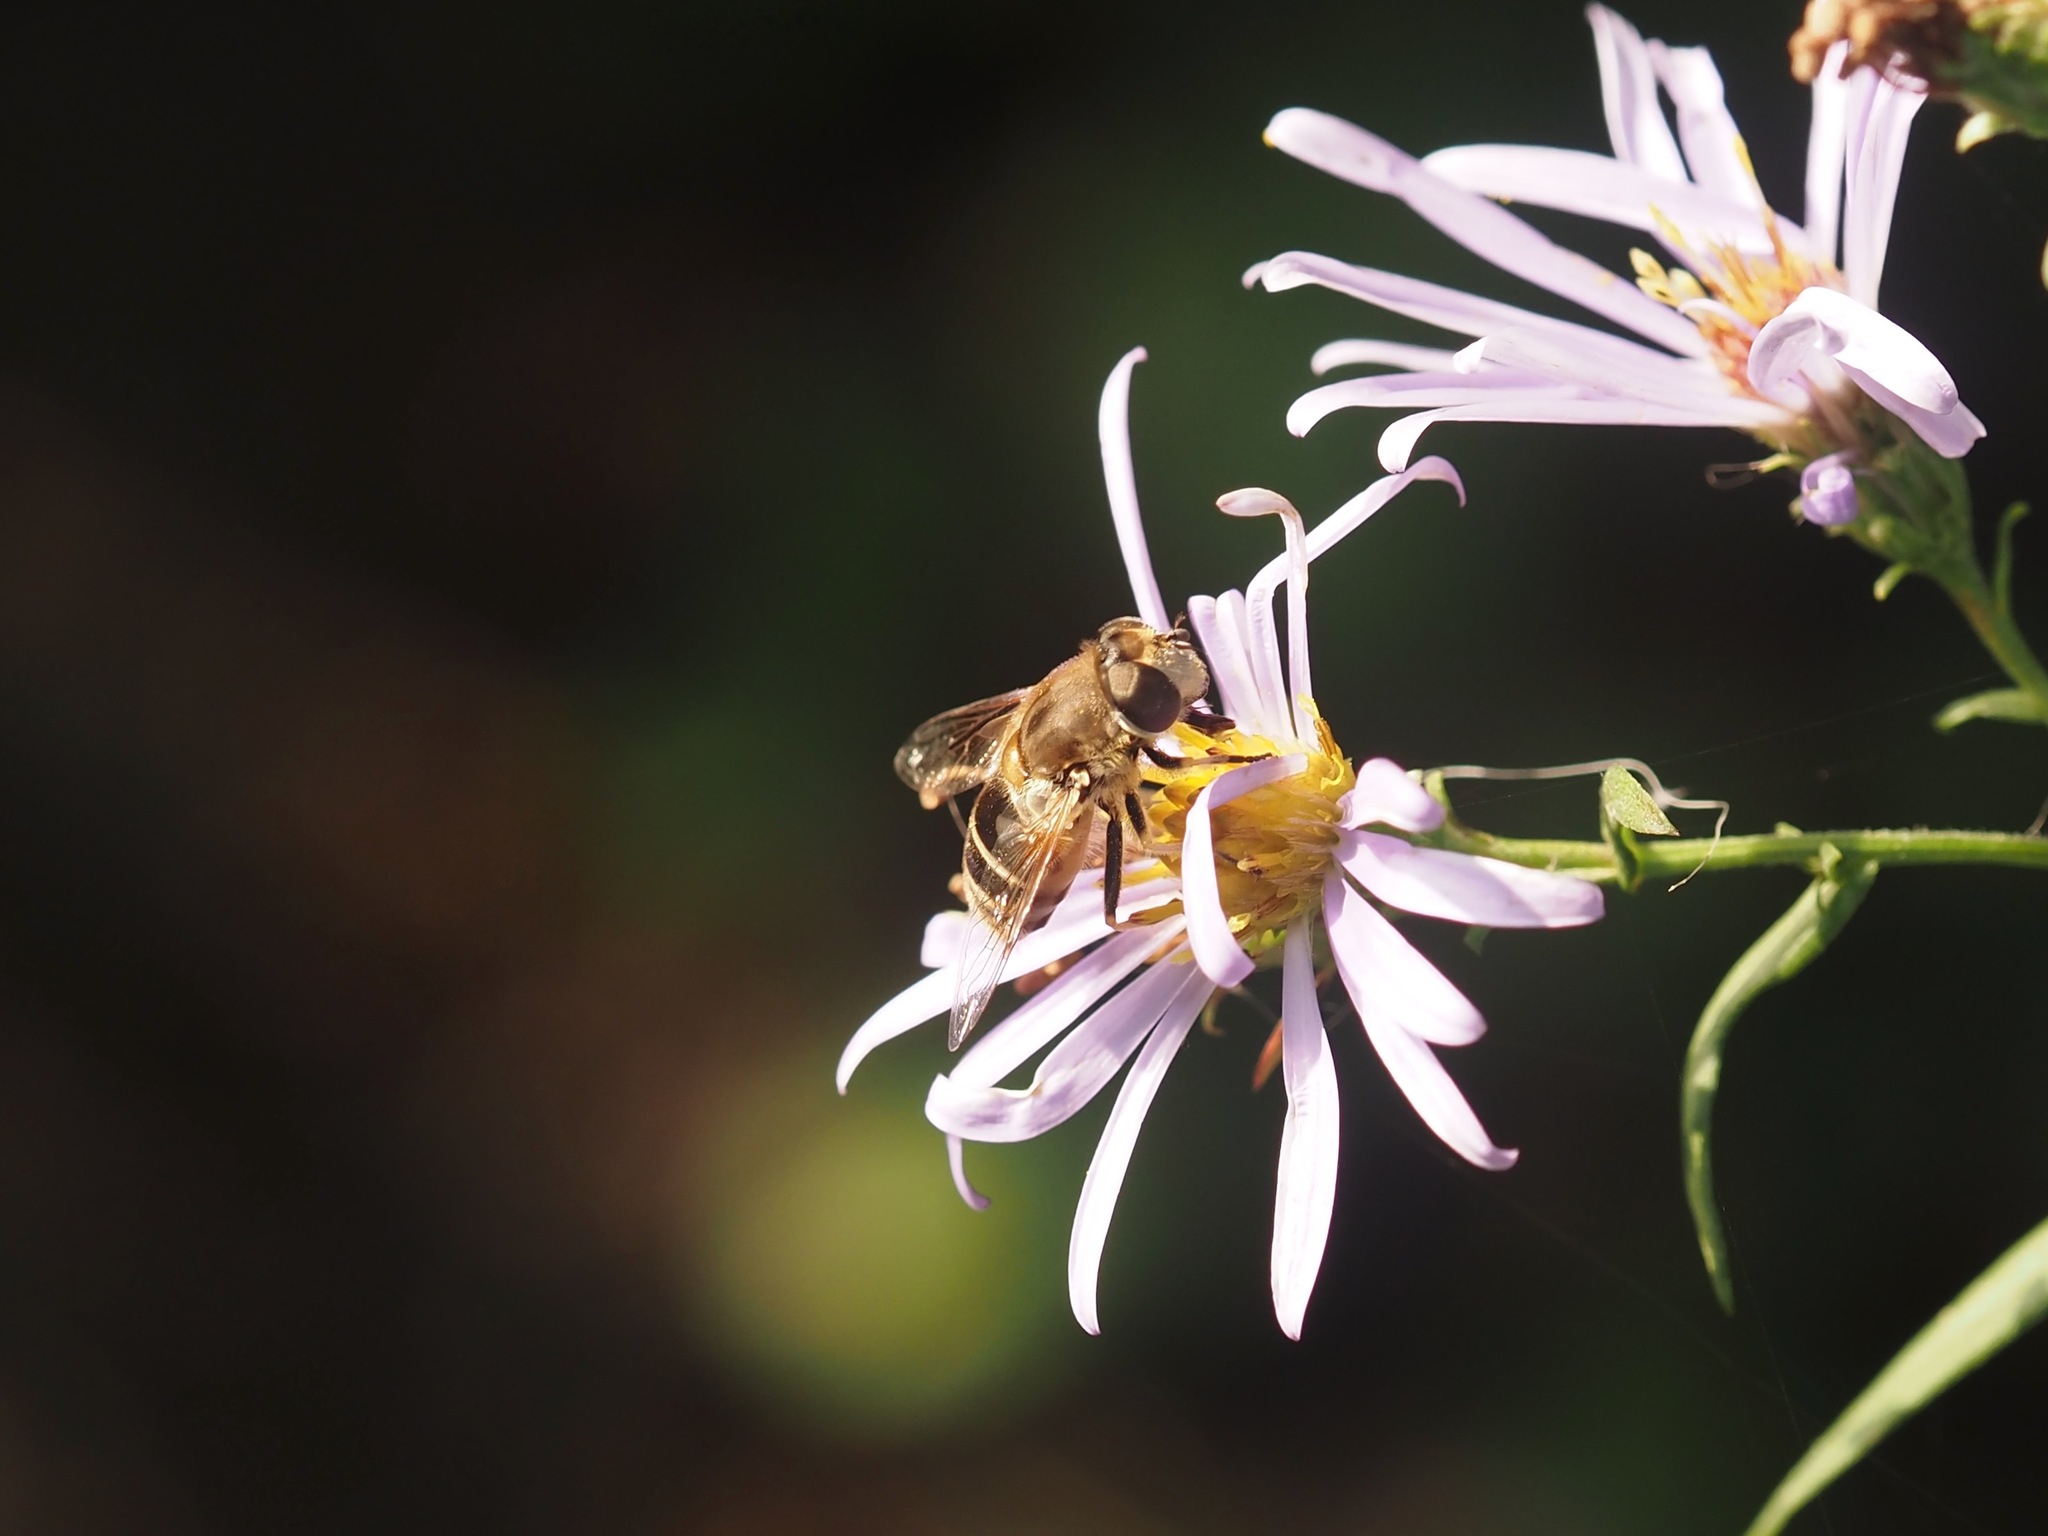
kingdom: Animalia
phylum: Arthropoda
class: Insecta
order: Diptera
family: Syrphidae
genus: Eristalis
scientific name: Eristalis arbustorum
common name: Hover fly
